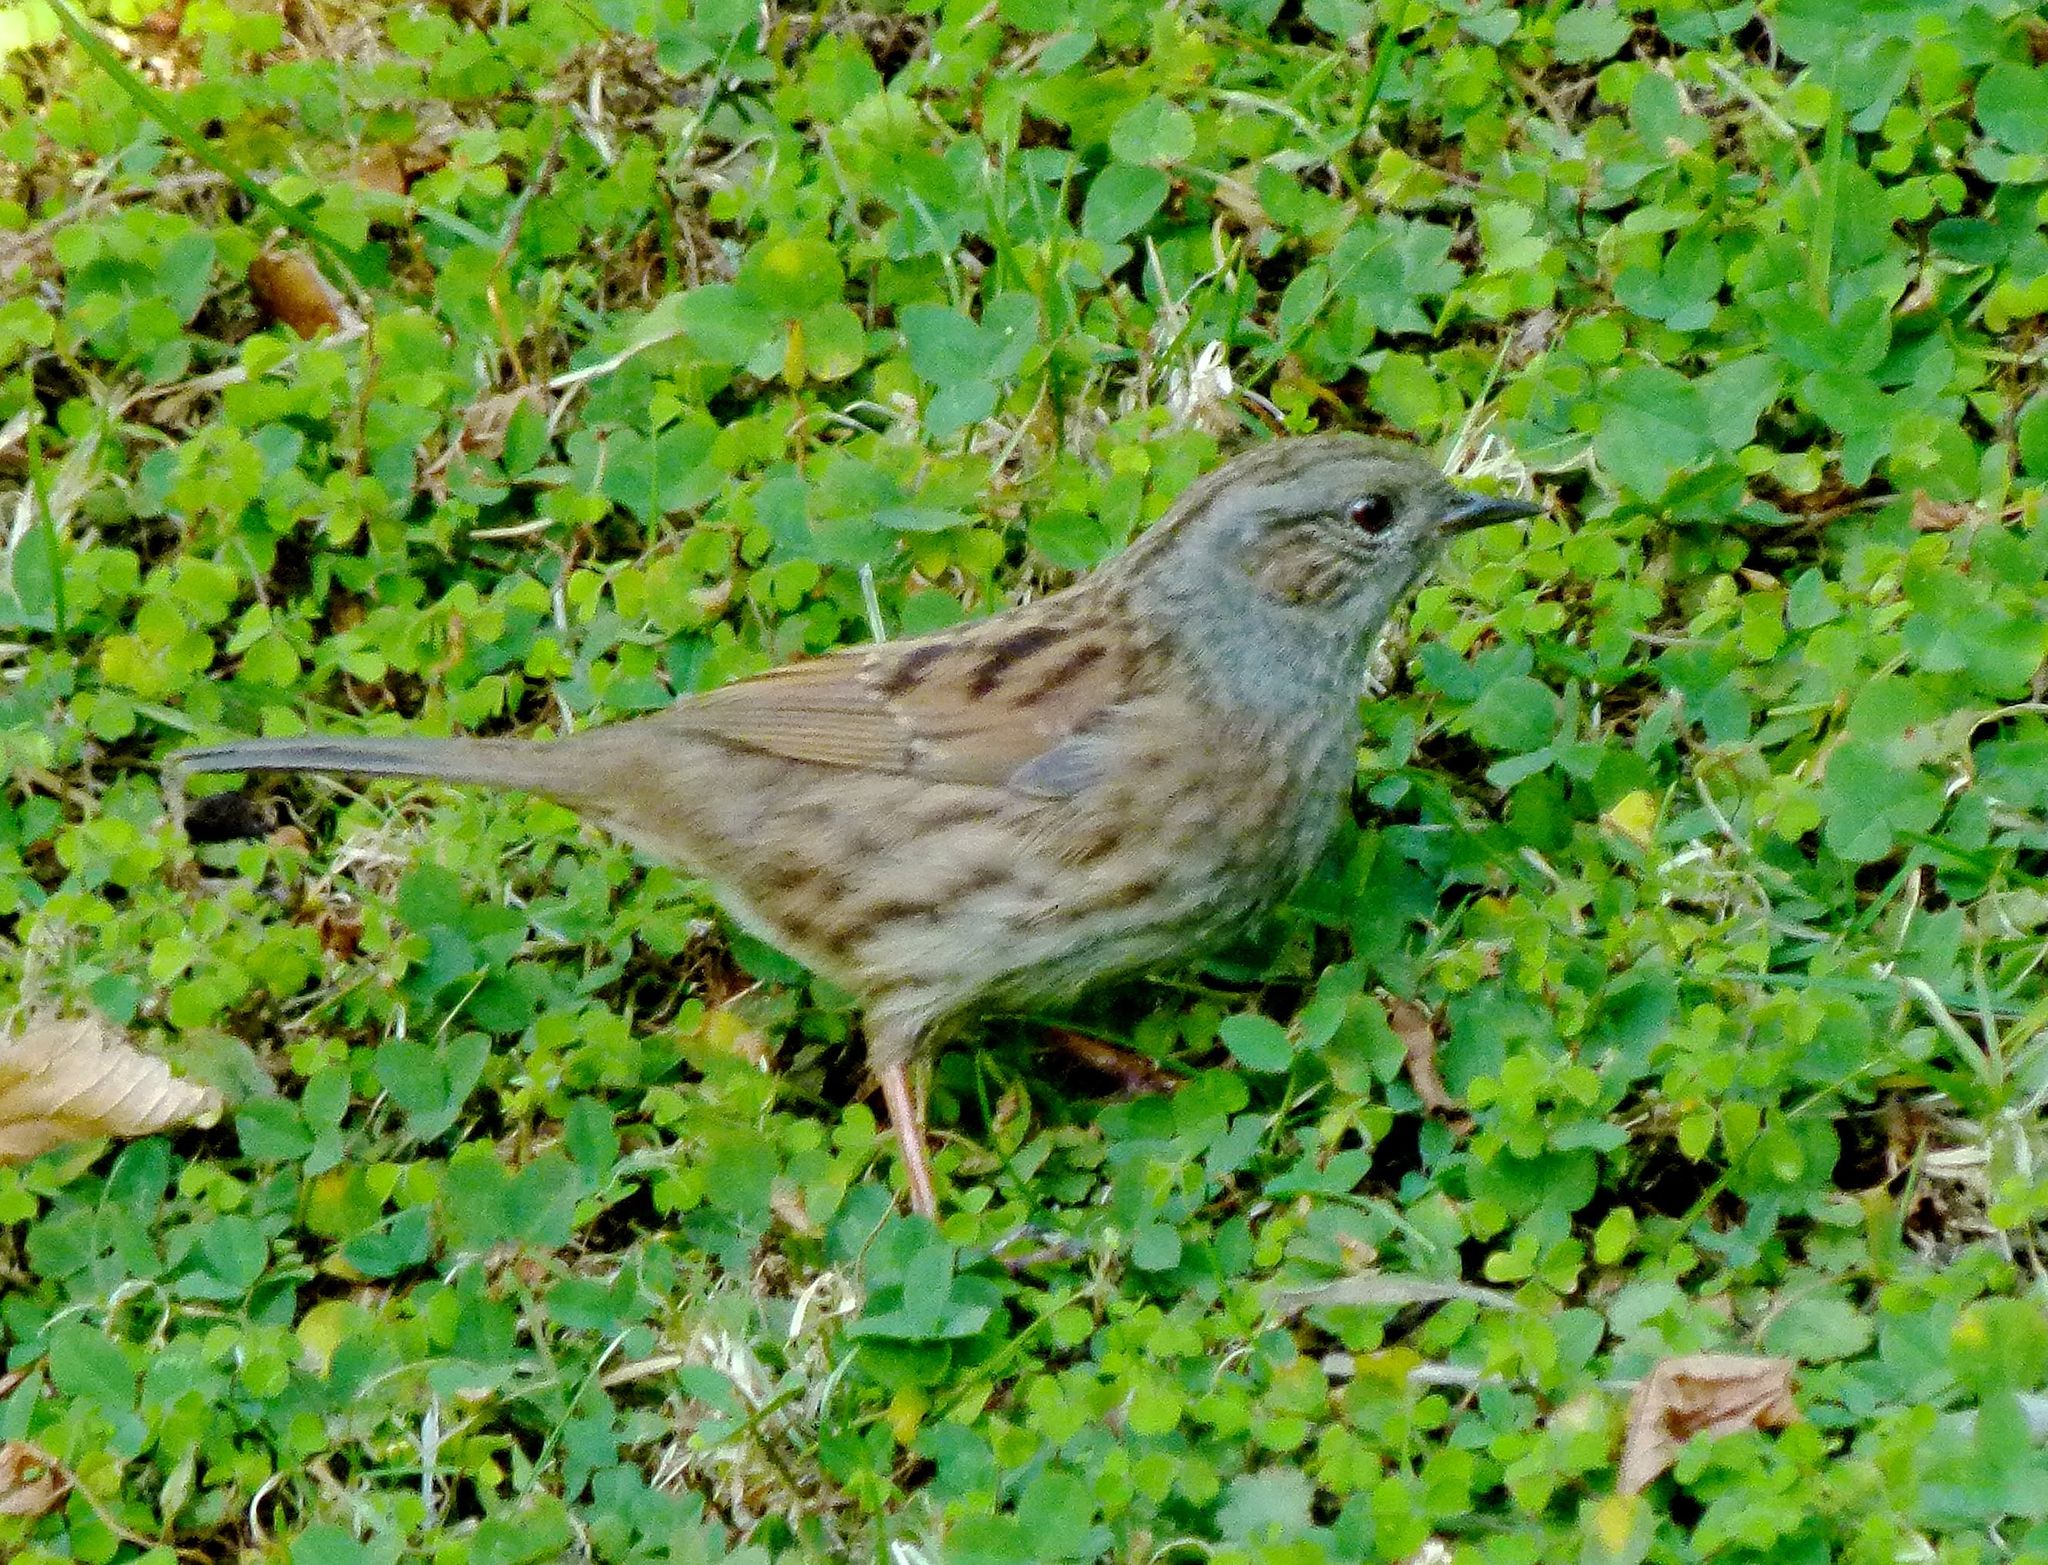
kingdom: Animalia
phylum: Chordata
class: Aves
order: Passeriformes
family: Prunellidae
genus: Prunella
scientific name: Prunella modularis
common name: Dunnock
